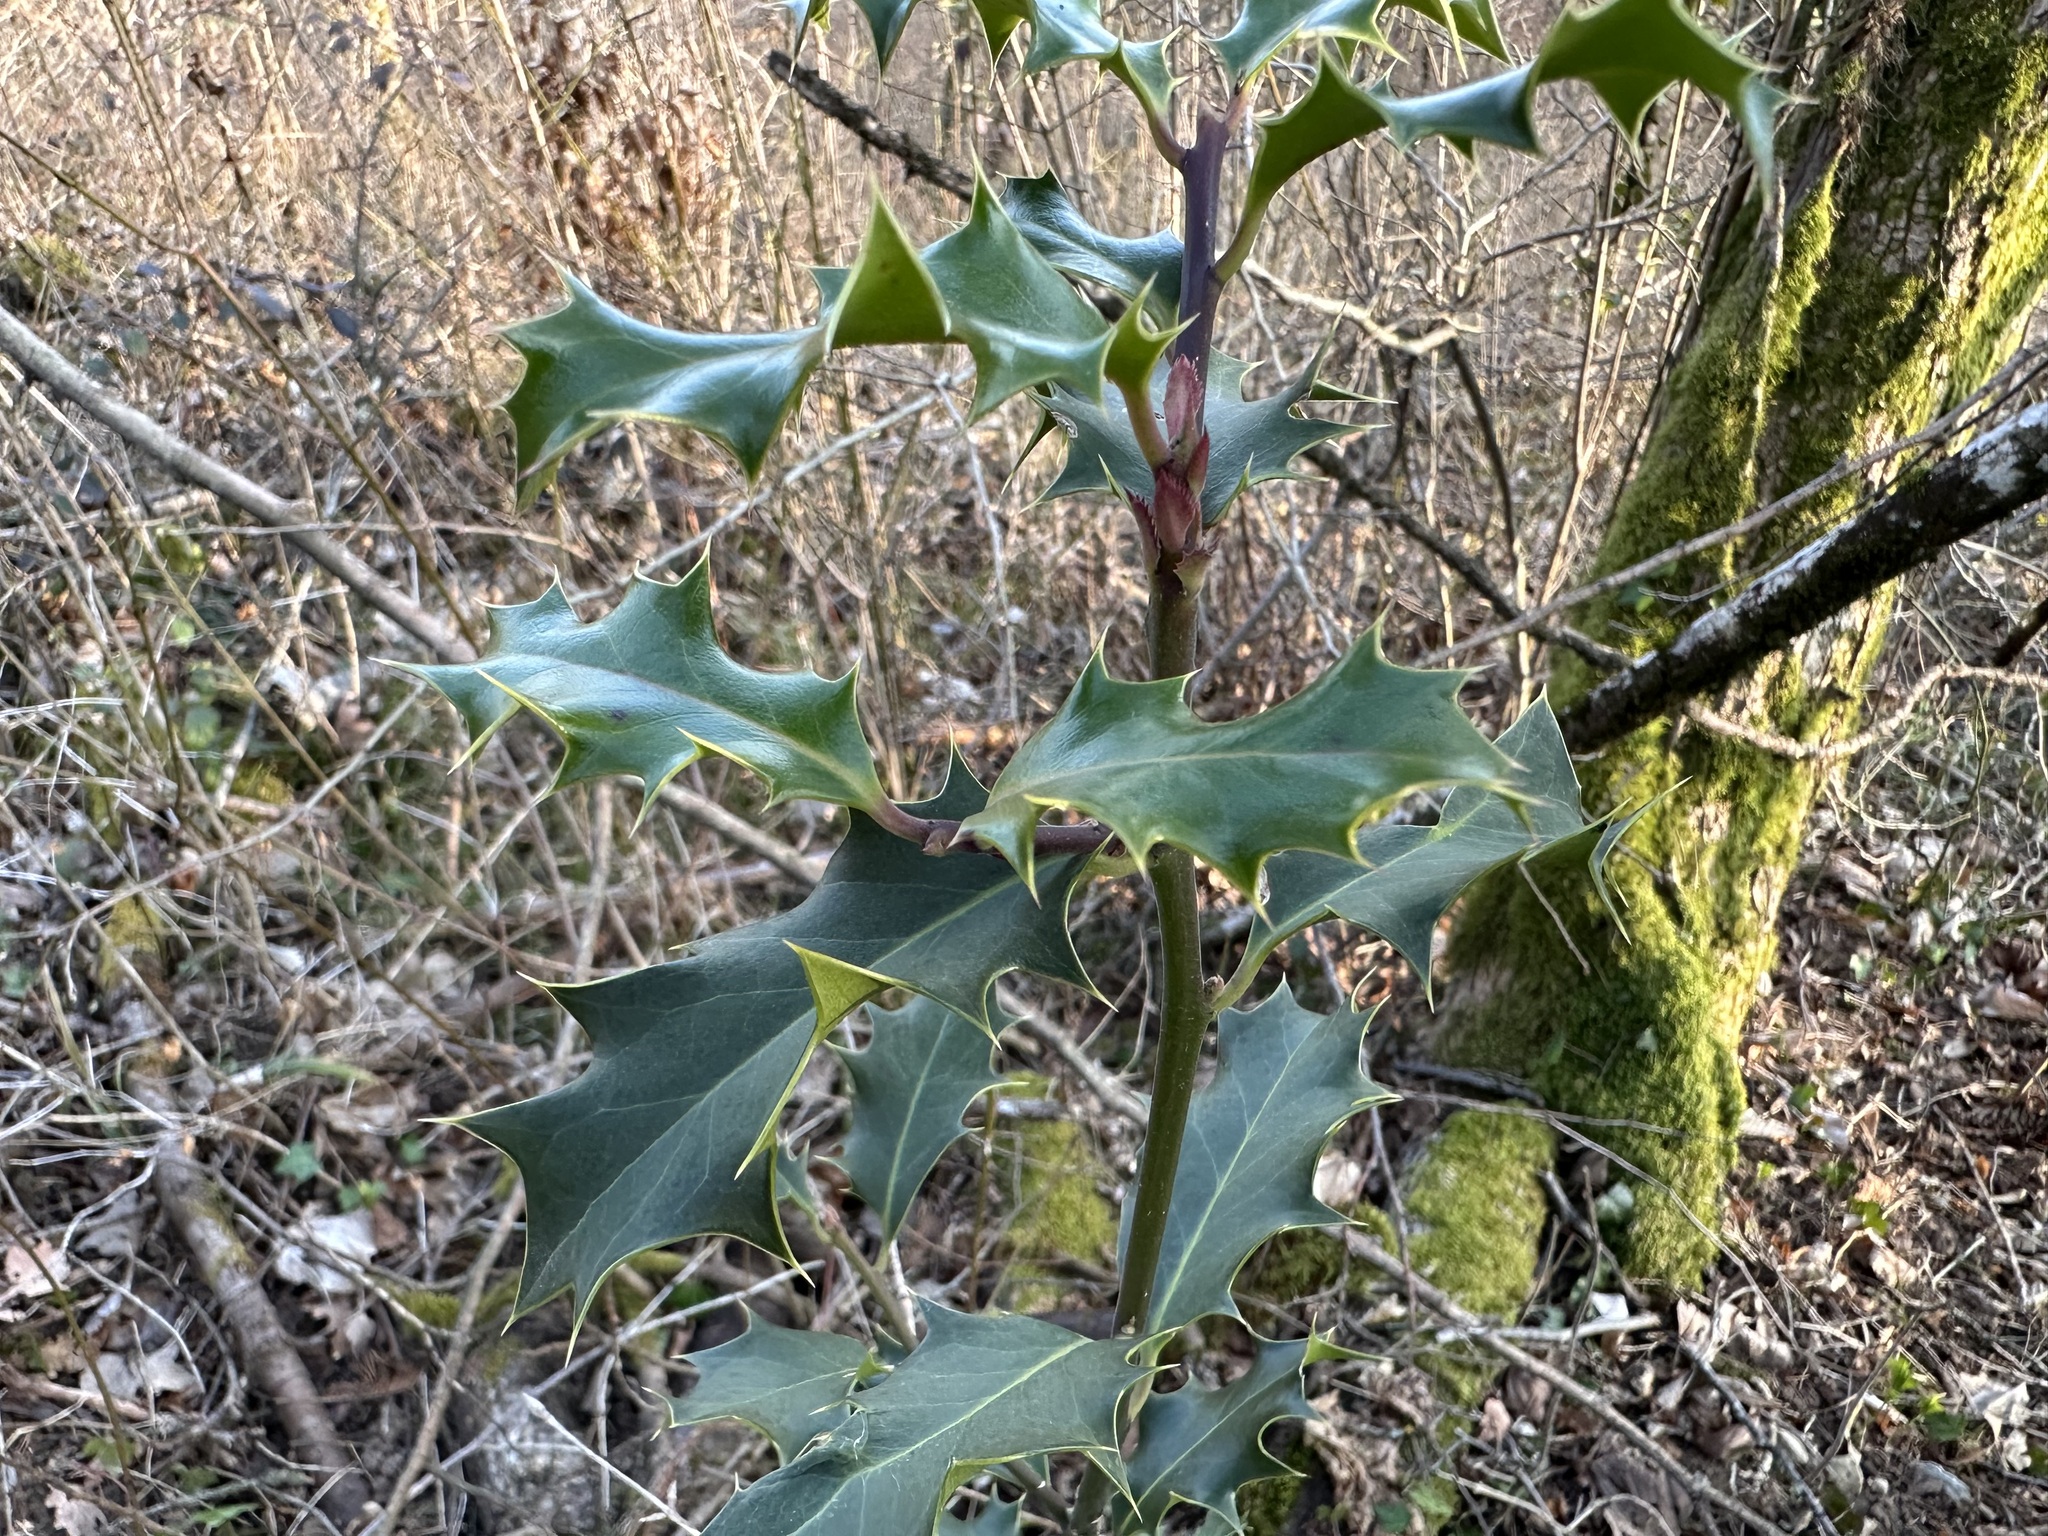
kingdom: Plantae
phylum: Tracheophyta
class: Magnoliopsida
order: Aquifoliales
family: Aquifoliaceae
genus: Ilex
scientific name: Ilex aquifolium
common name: English holly
